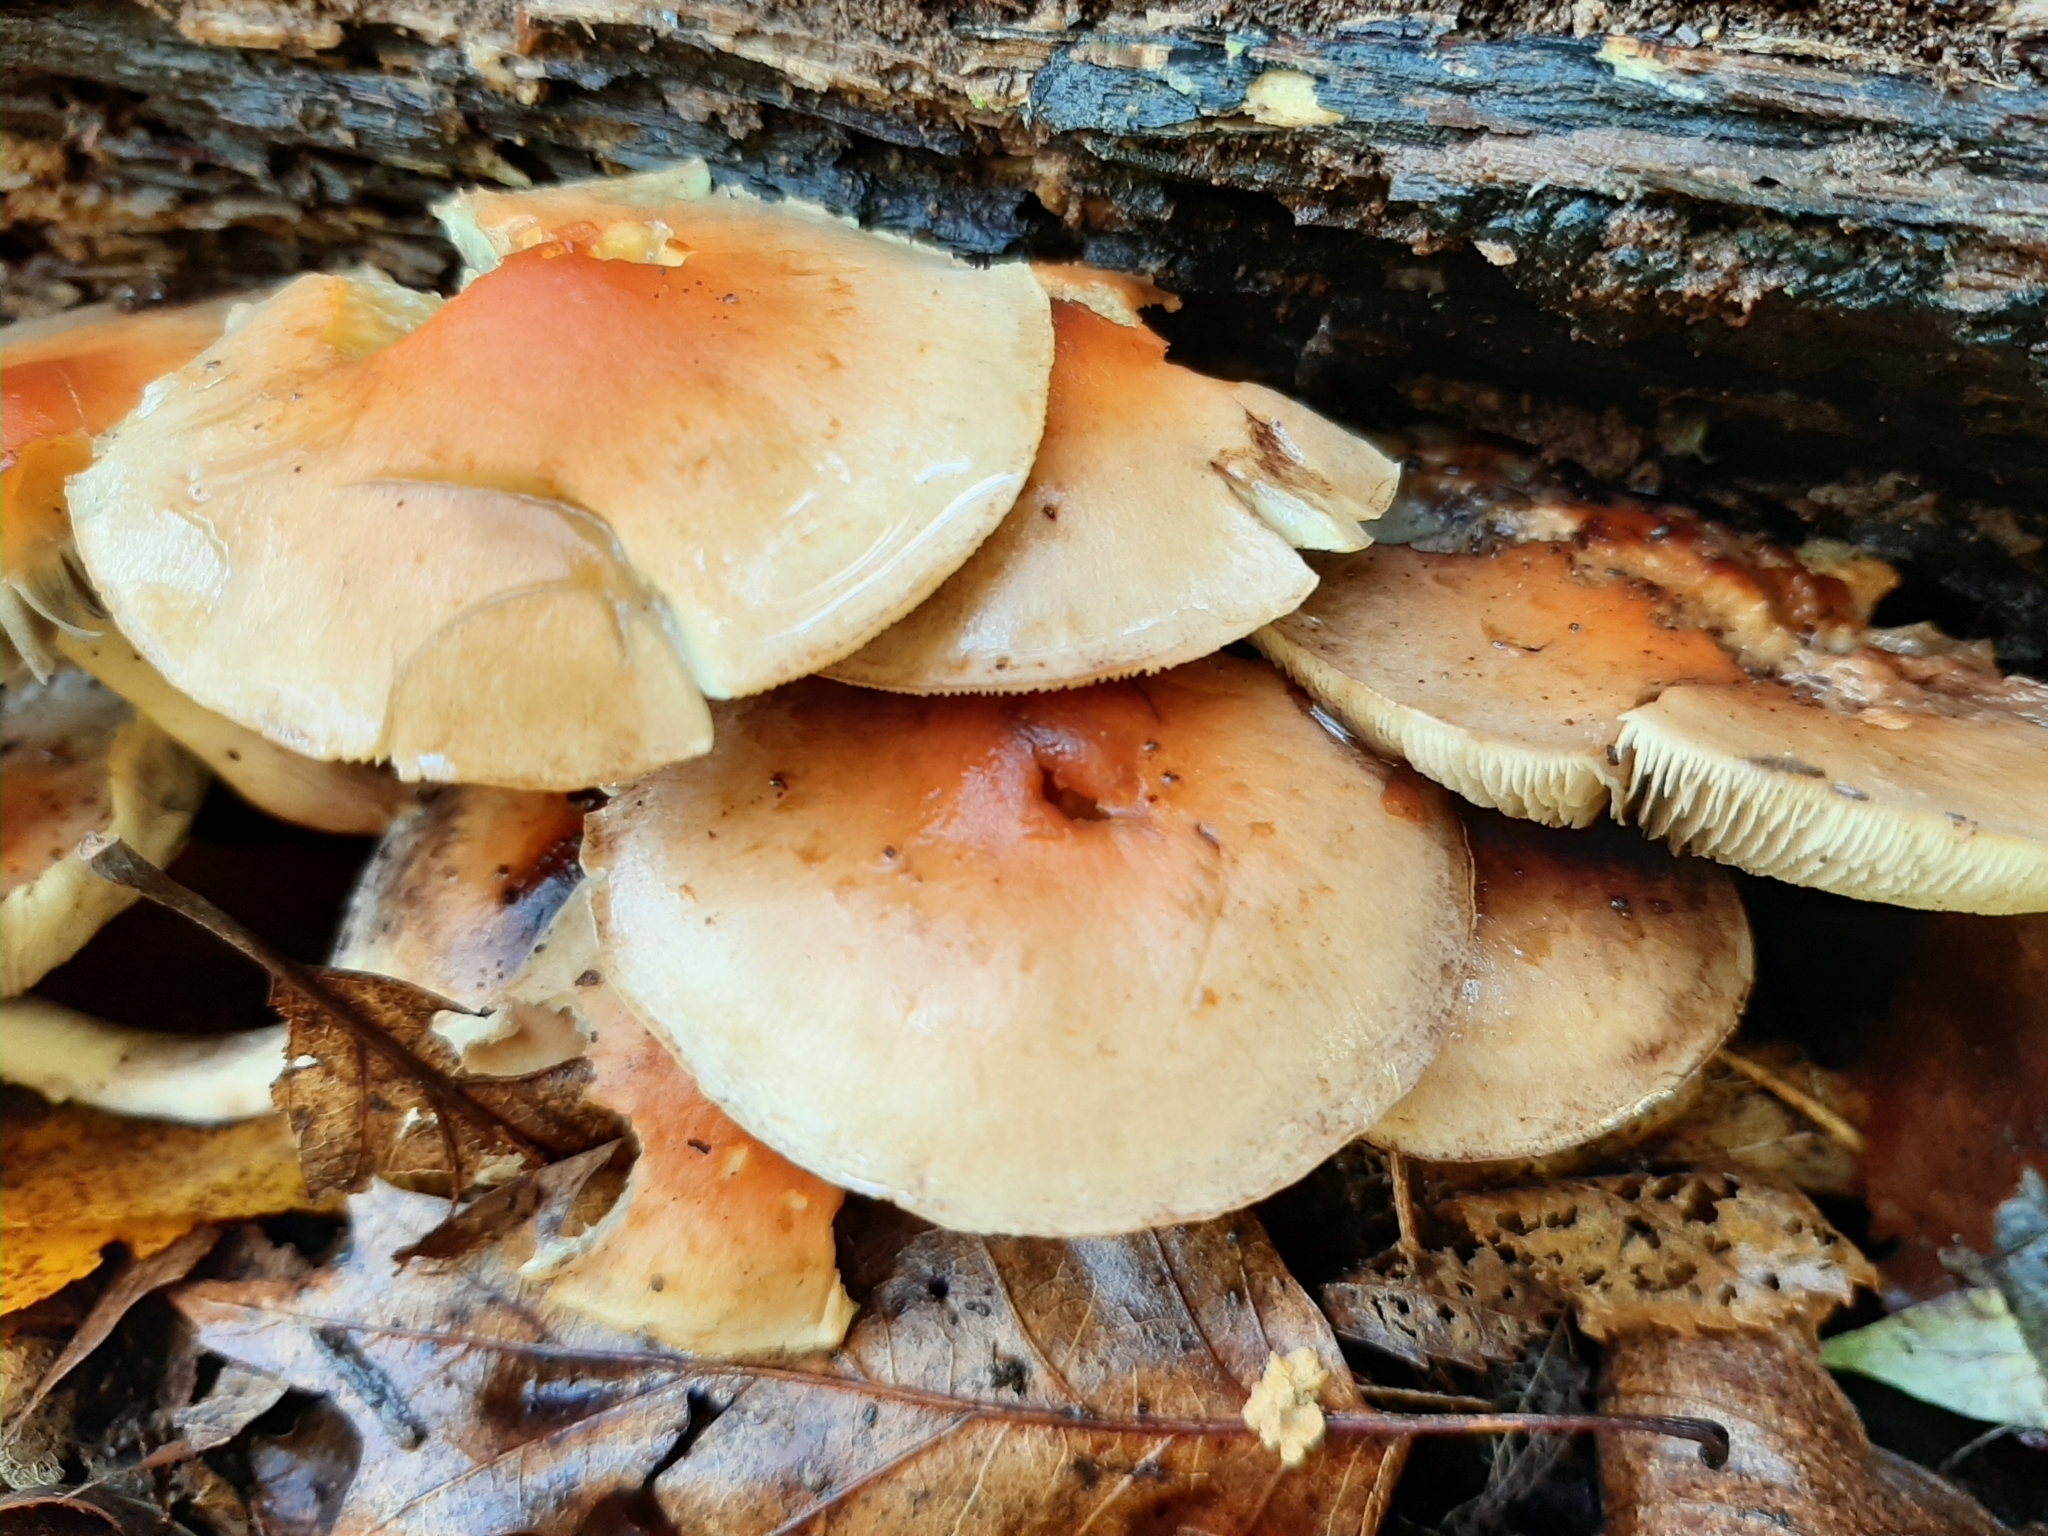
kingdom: Fungi
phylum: Basidiomycota
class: Agaricomycetes
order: Agaricales
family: Strophariaceae
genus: Hypholoma
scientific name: Hypholoma lateritium
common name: Brick caps
